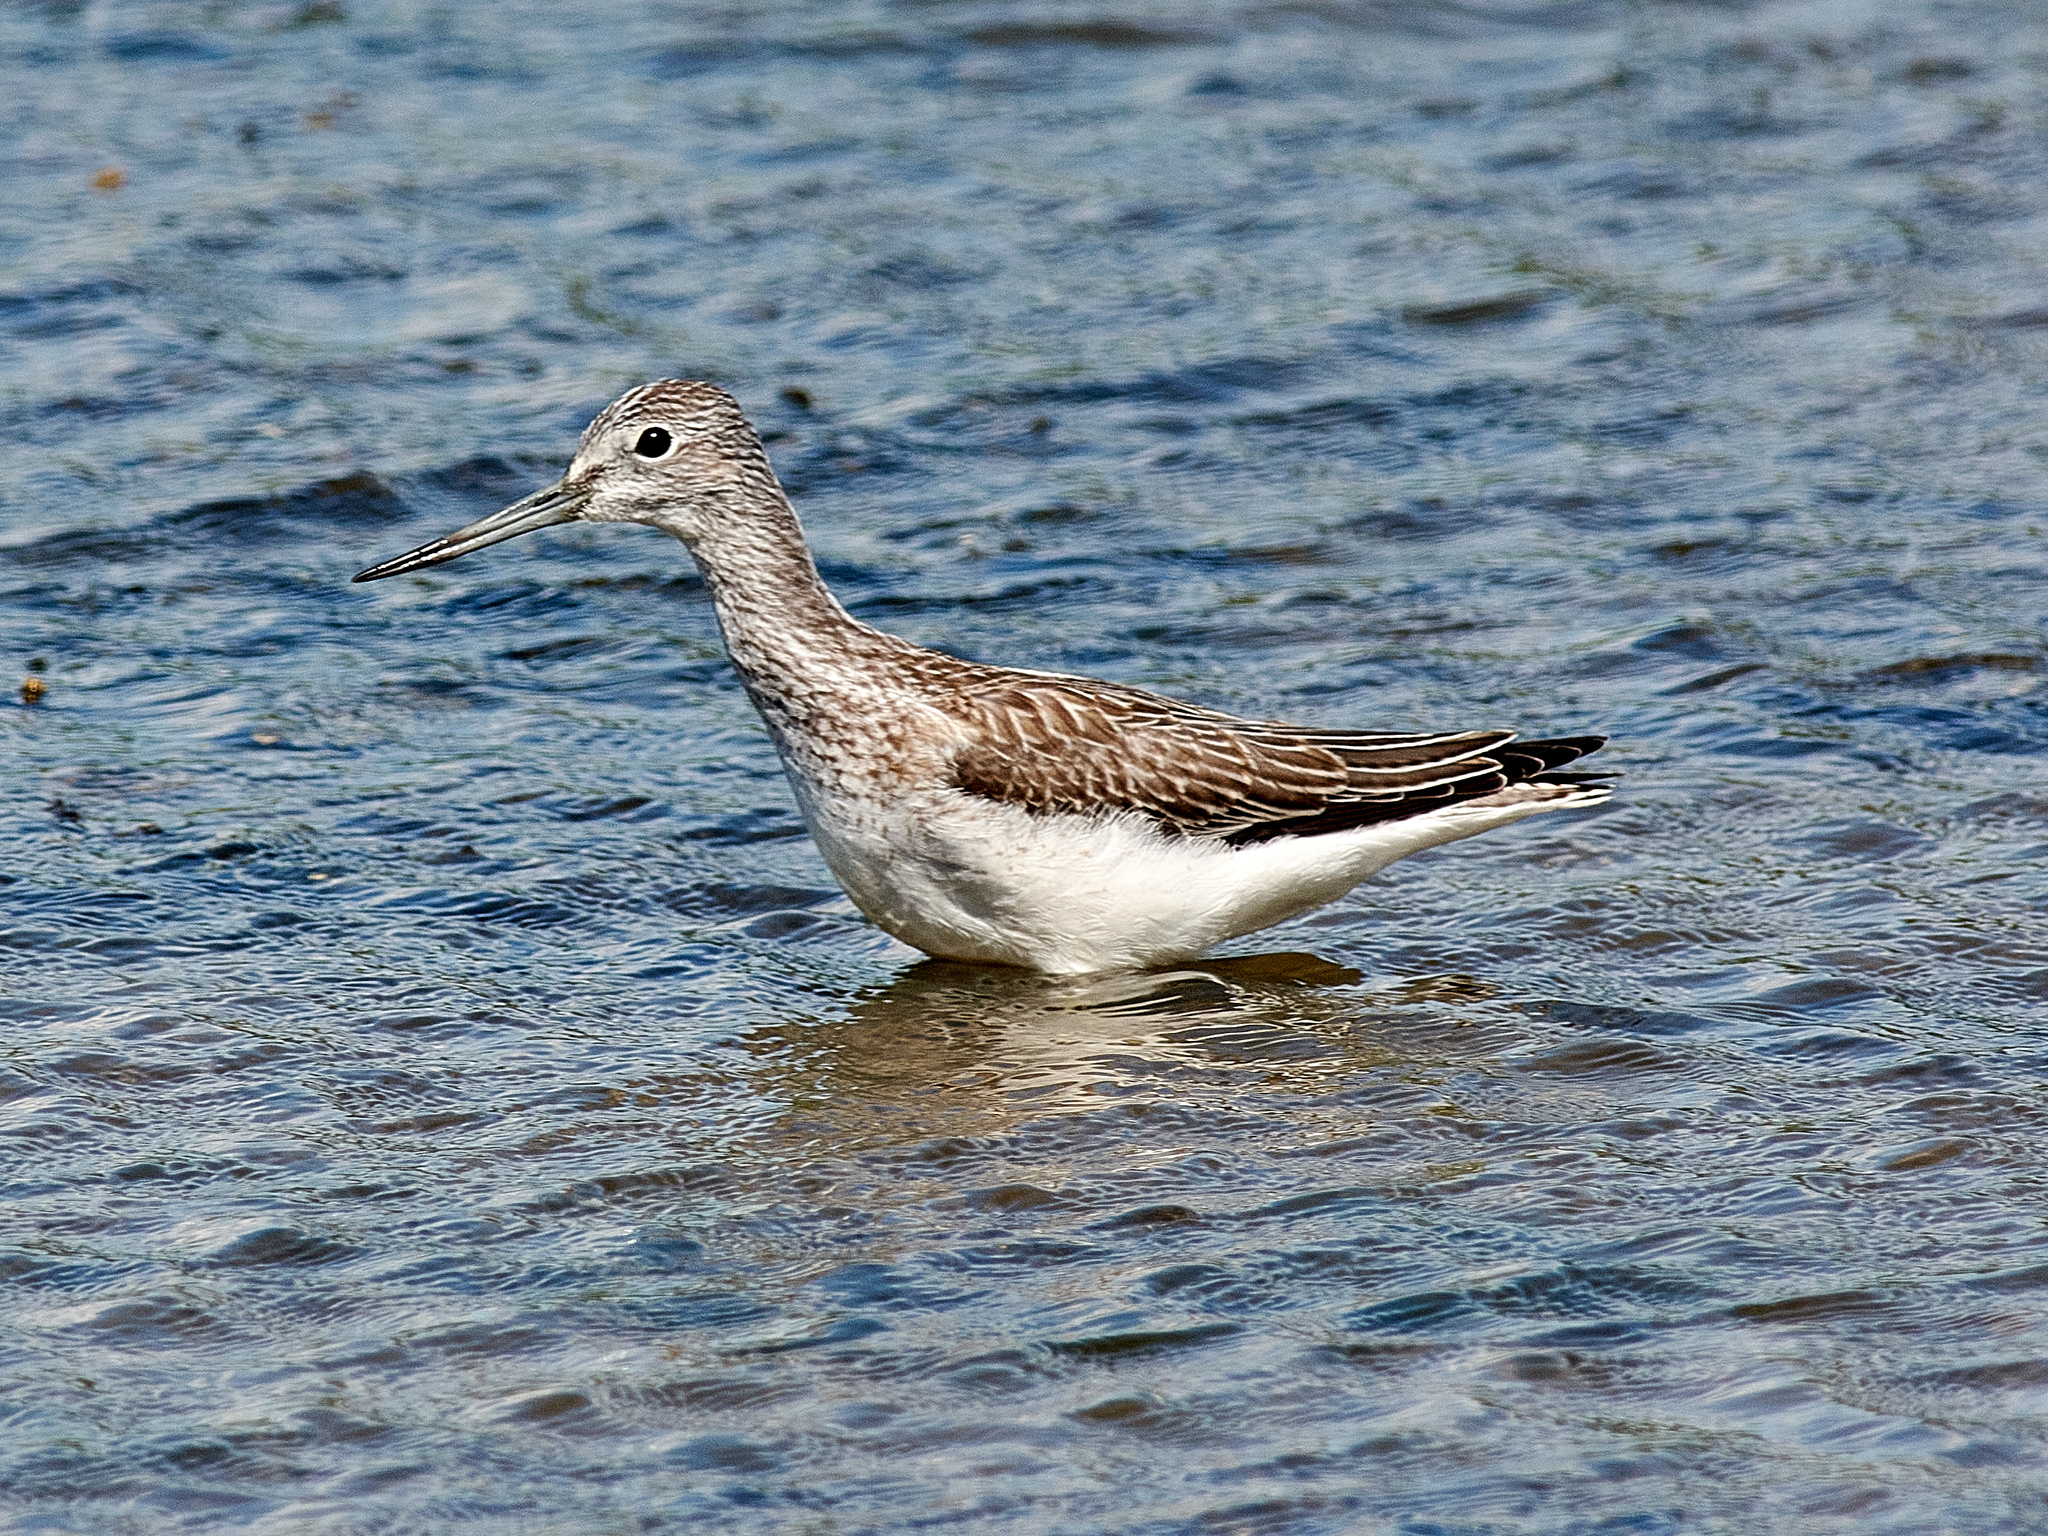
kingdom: Animalia
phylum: Chordata
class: Aves
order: Charadriiformes
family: Scolopacidae
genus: Tringa
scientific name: Tringa nebularia
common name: Common greenshank
